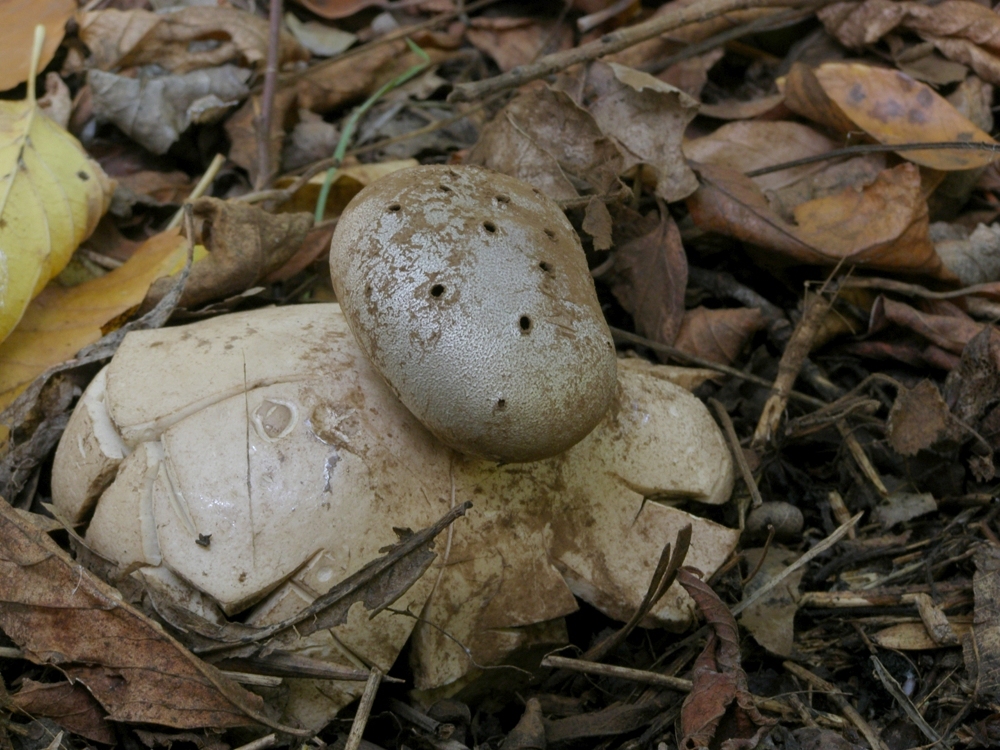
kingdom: Fungi
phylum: Basidiomycota
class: Agaricomycetes
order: Geastrales
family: Geastraceae
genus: Myriostoma
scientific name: Myriostoma coliforme
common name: Pepper pot
